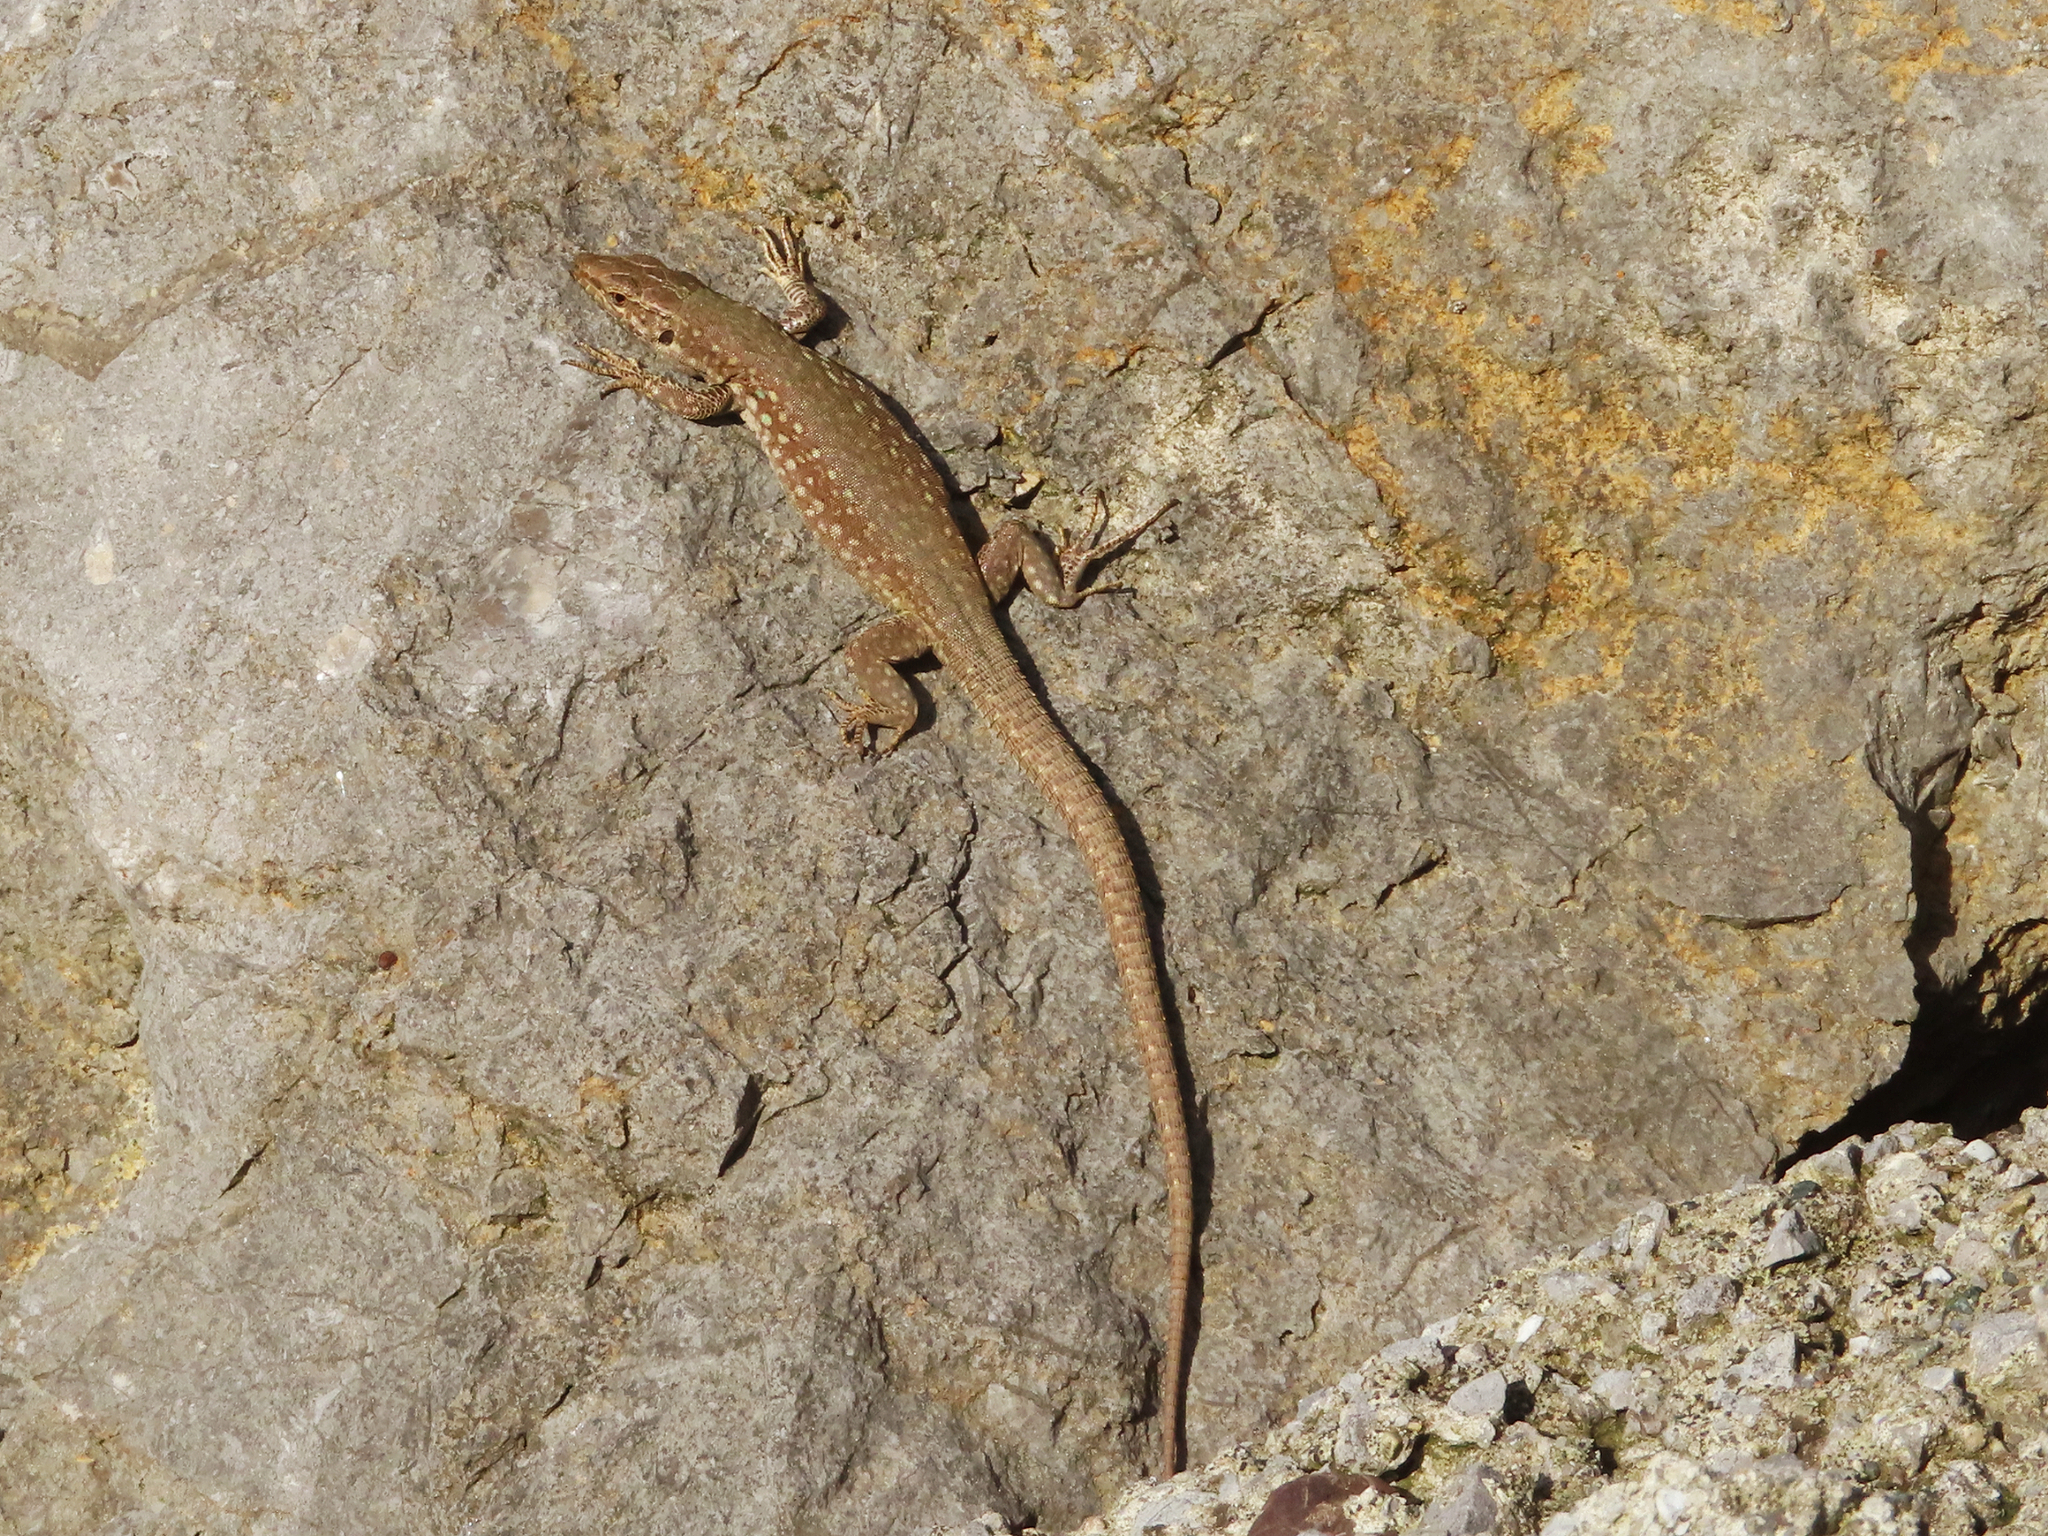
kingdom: Animalia
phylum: Chordata
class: Squamata
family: Lacertidae
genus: Podarcis
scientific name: Podarcis siculus
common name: Italian wall lizard
